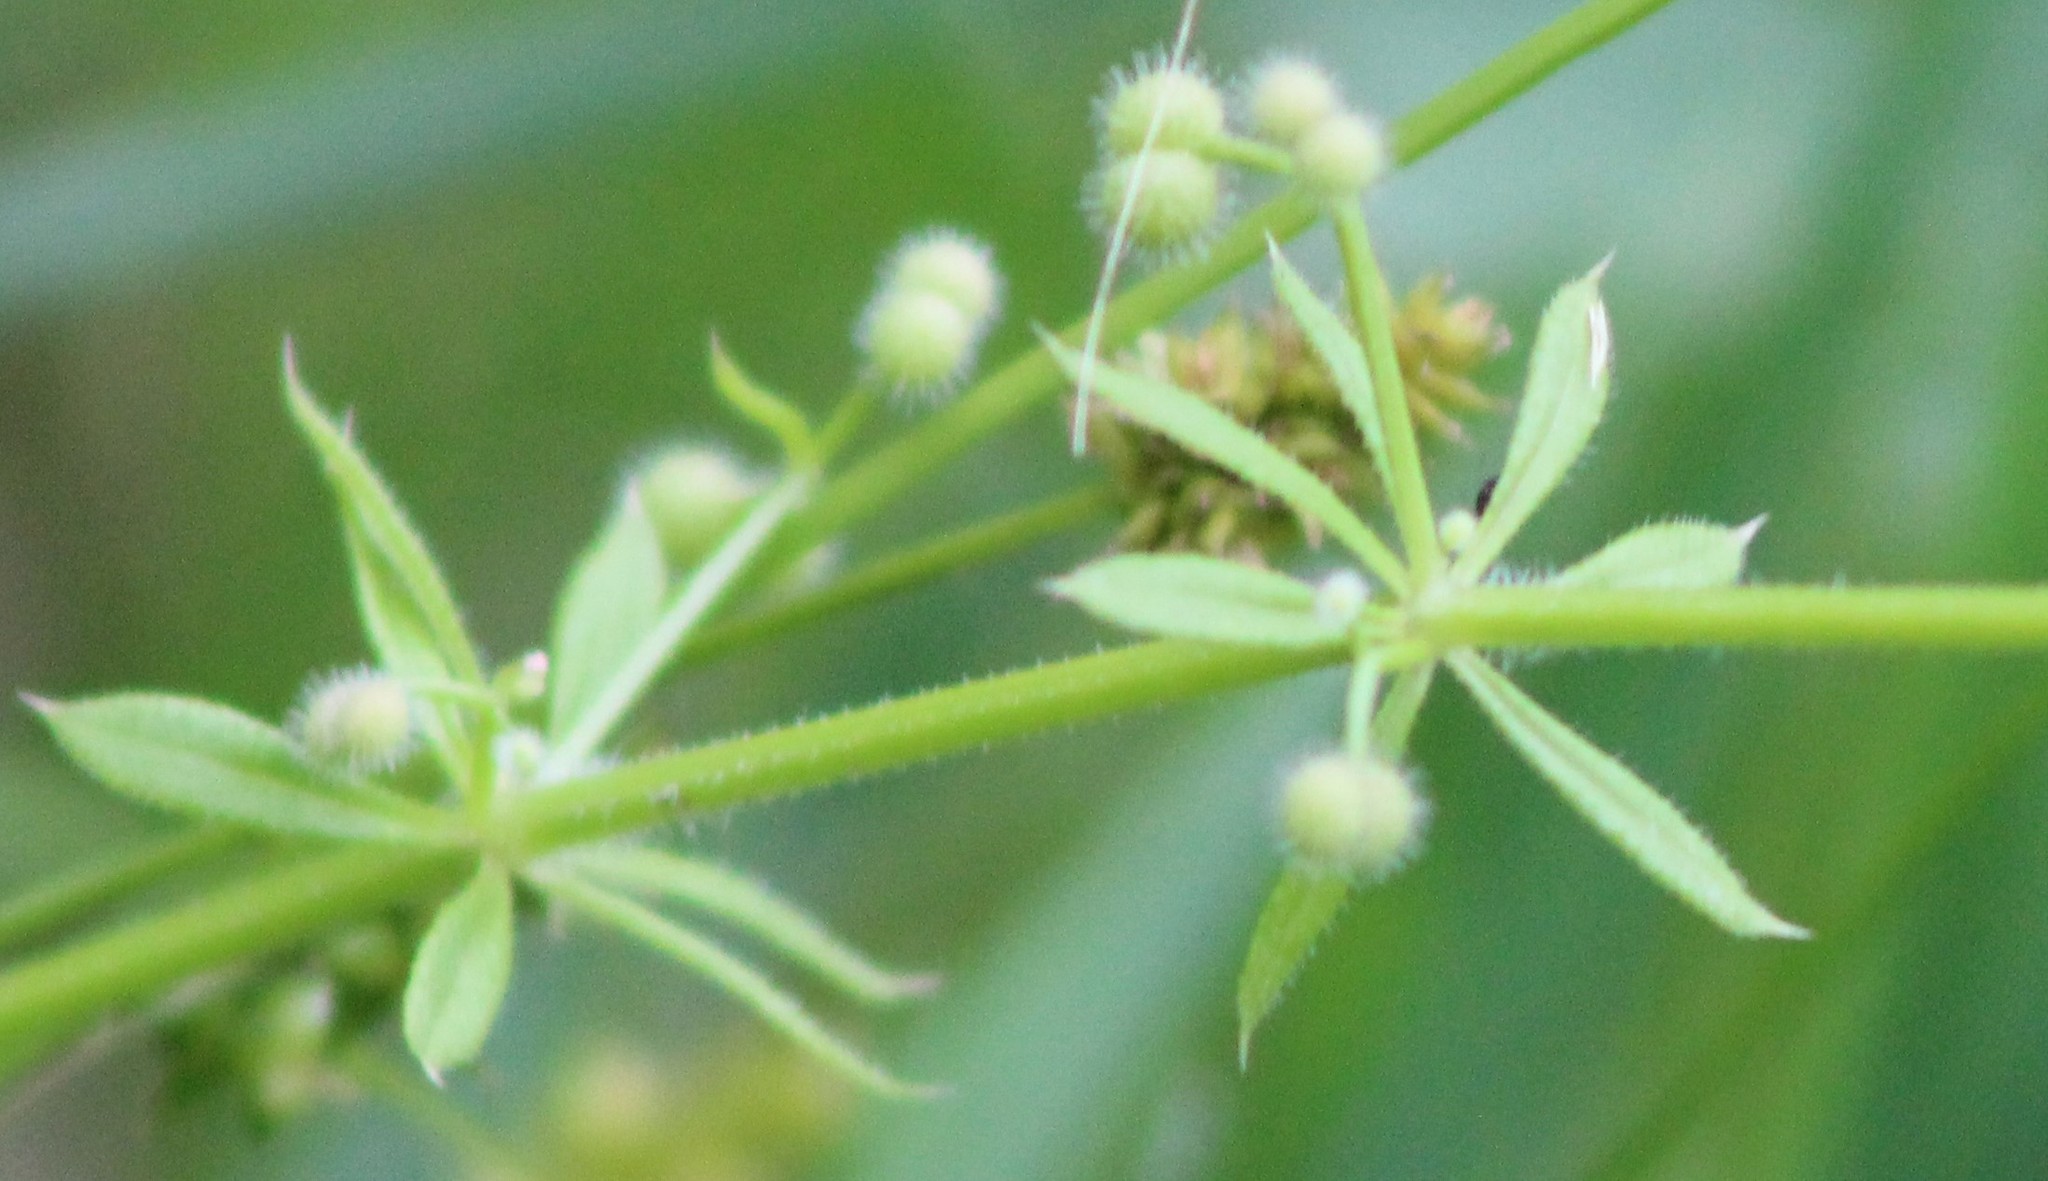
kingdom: Plantae
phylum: Tracheophyta
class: Magnoliopsida
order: Gentianales
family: Rubiaceae
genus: Galium
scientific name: Galium aparine
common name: Cleavers
